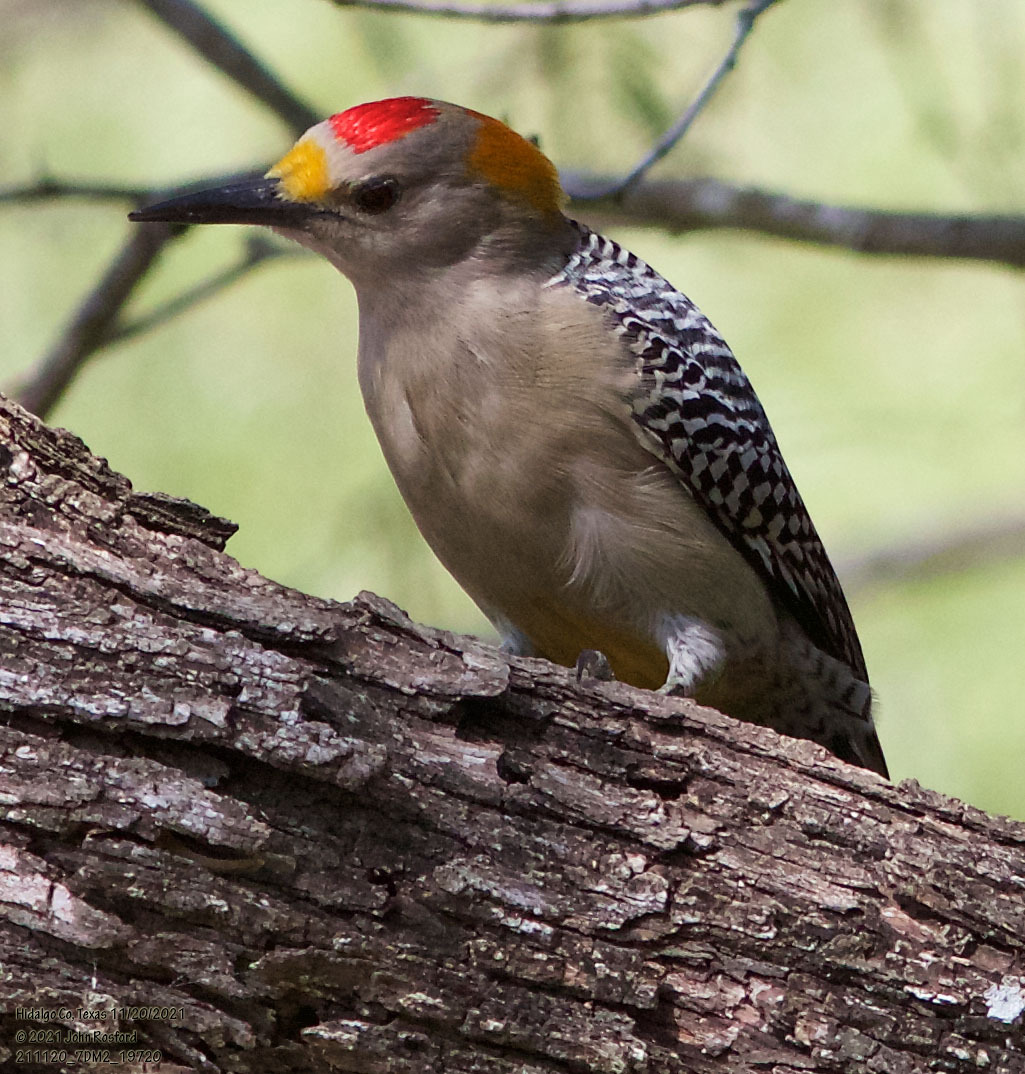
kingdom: Animalia
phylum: Chordata
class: Aves
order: Piciformes
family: Picidae
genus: Melanerpes
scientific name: Melanerpes aurifrons
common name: Golden-fronted woodpecker
